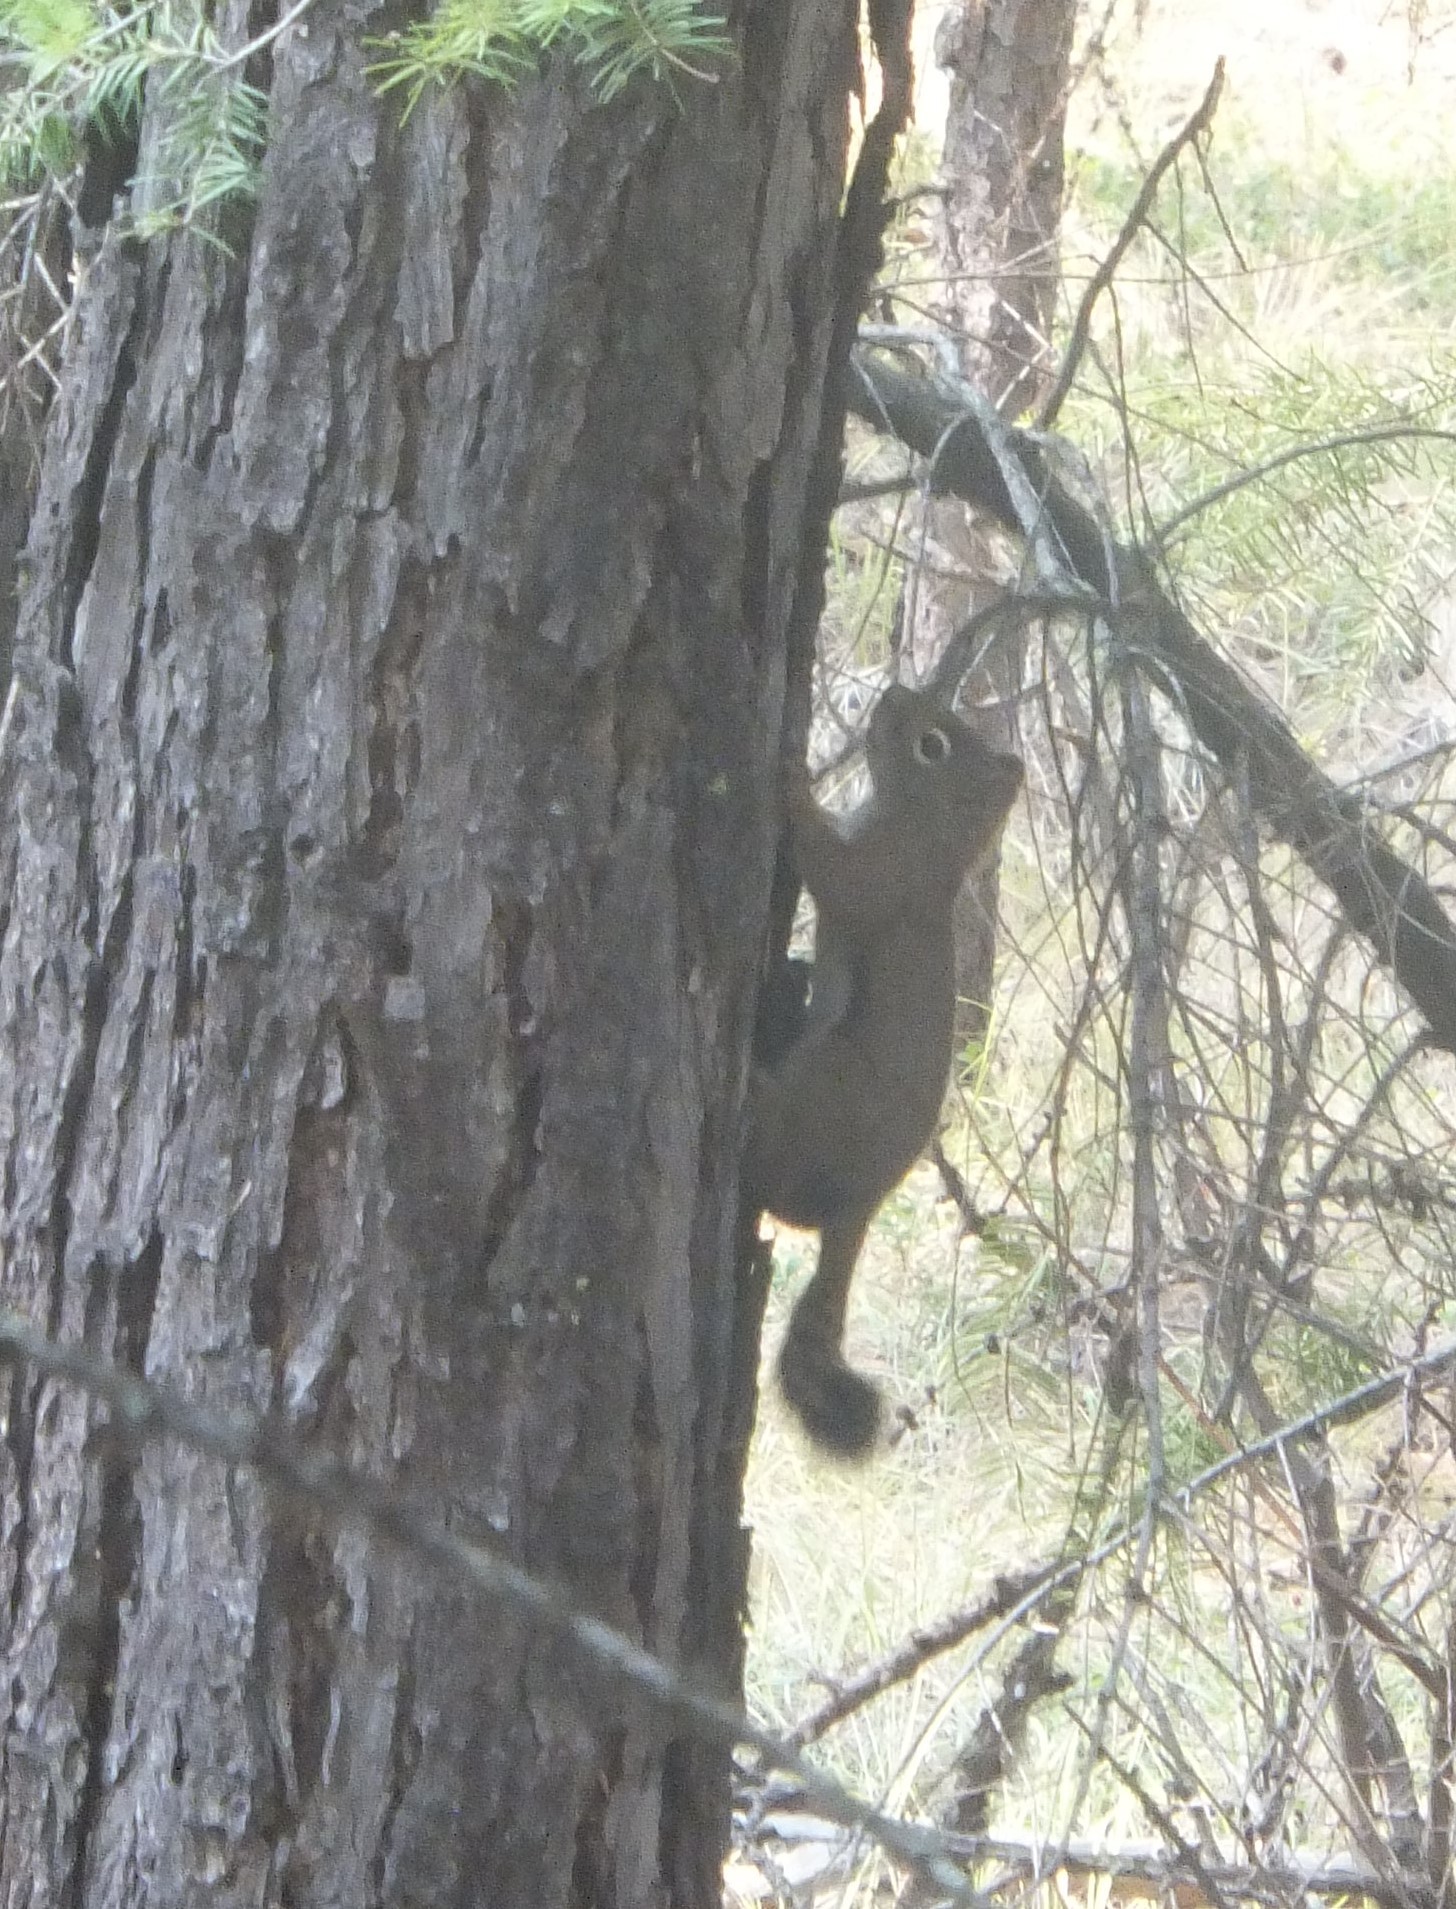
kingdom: Animalia
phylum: Chordata
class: Mammalia
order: Rodentia
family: Sciuridae
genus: Tamiasciurus
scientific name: Tamiasciurus hudsonicus
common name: Red squirrel
